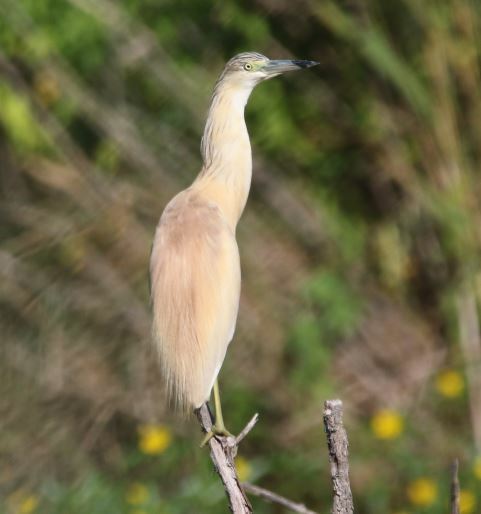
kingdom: Animalia
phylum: Chordata
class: Aves
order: Pelecaniformes
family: Ardeidae
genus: Ardeola
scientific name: Ardeola ralloides
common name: Squacco heron
